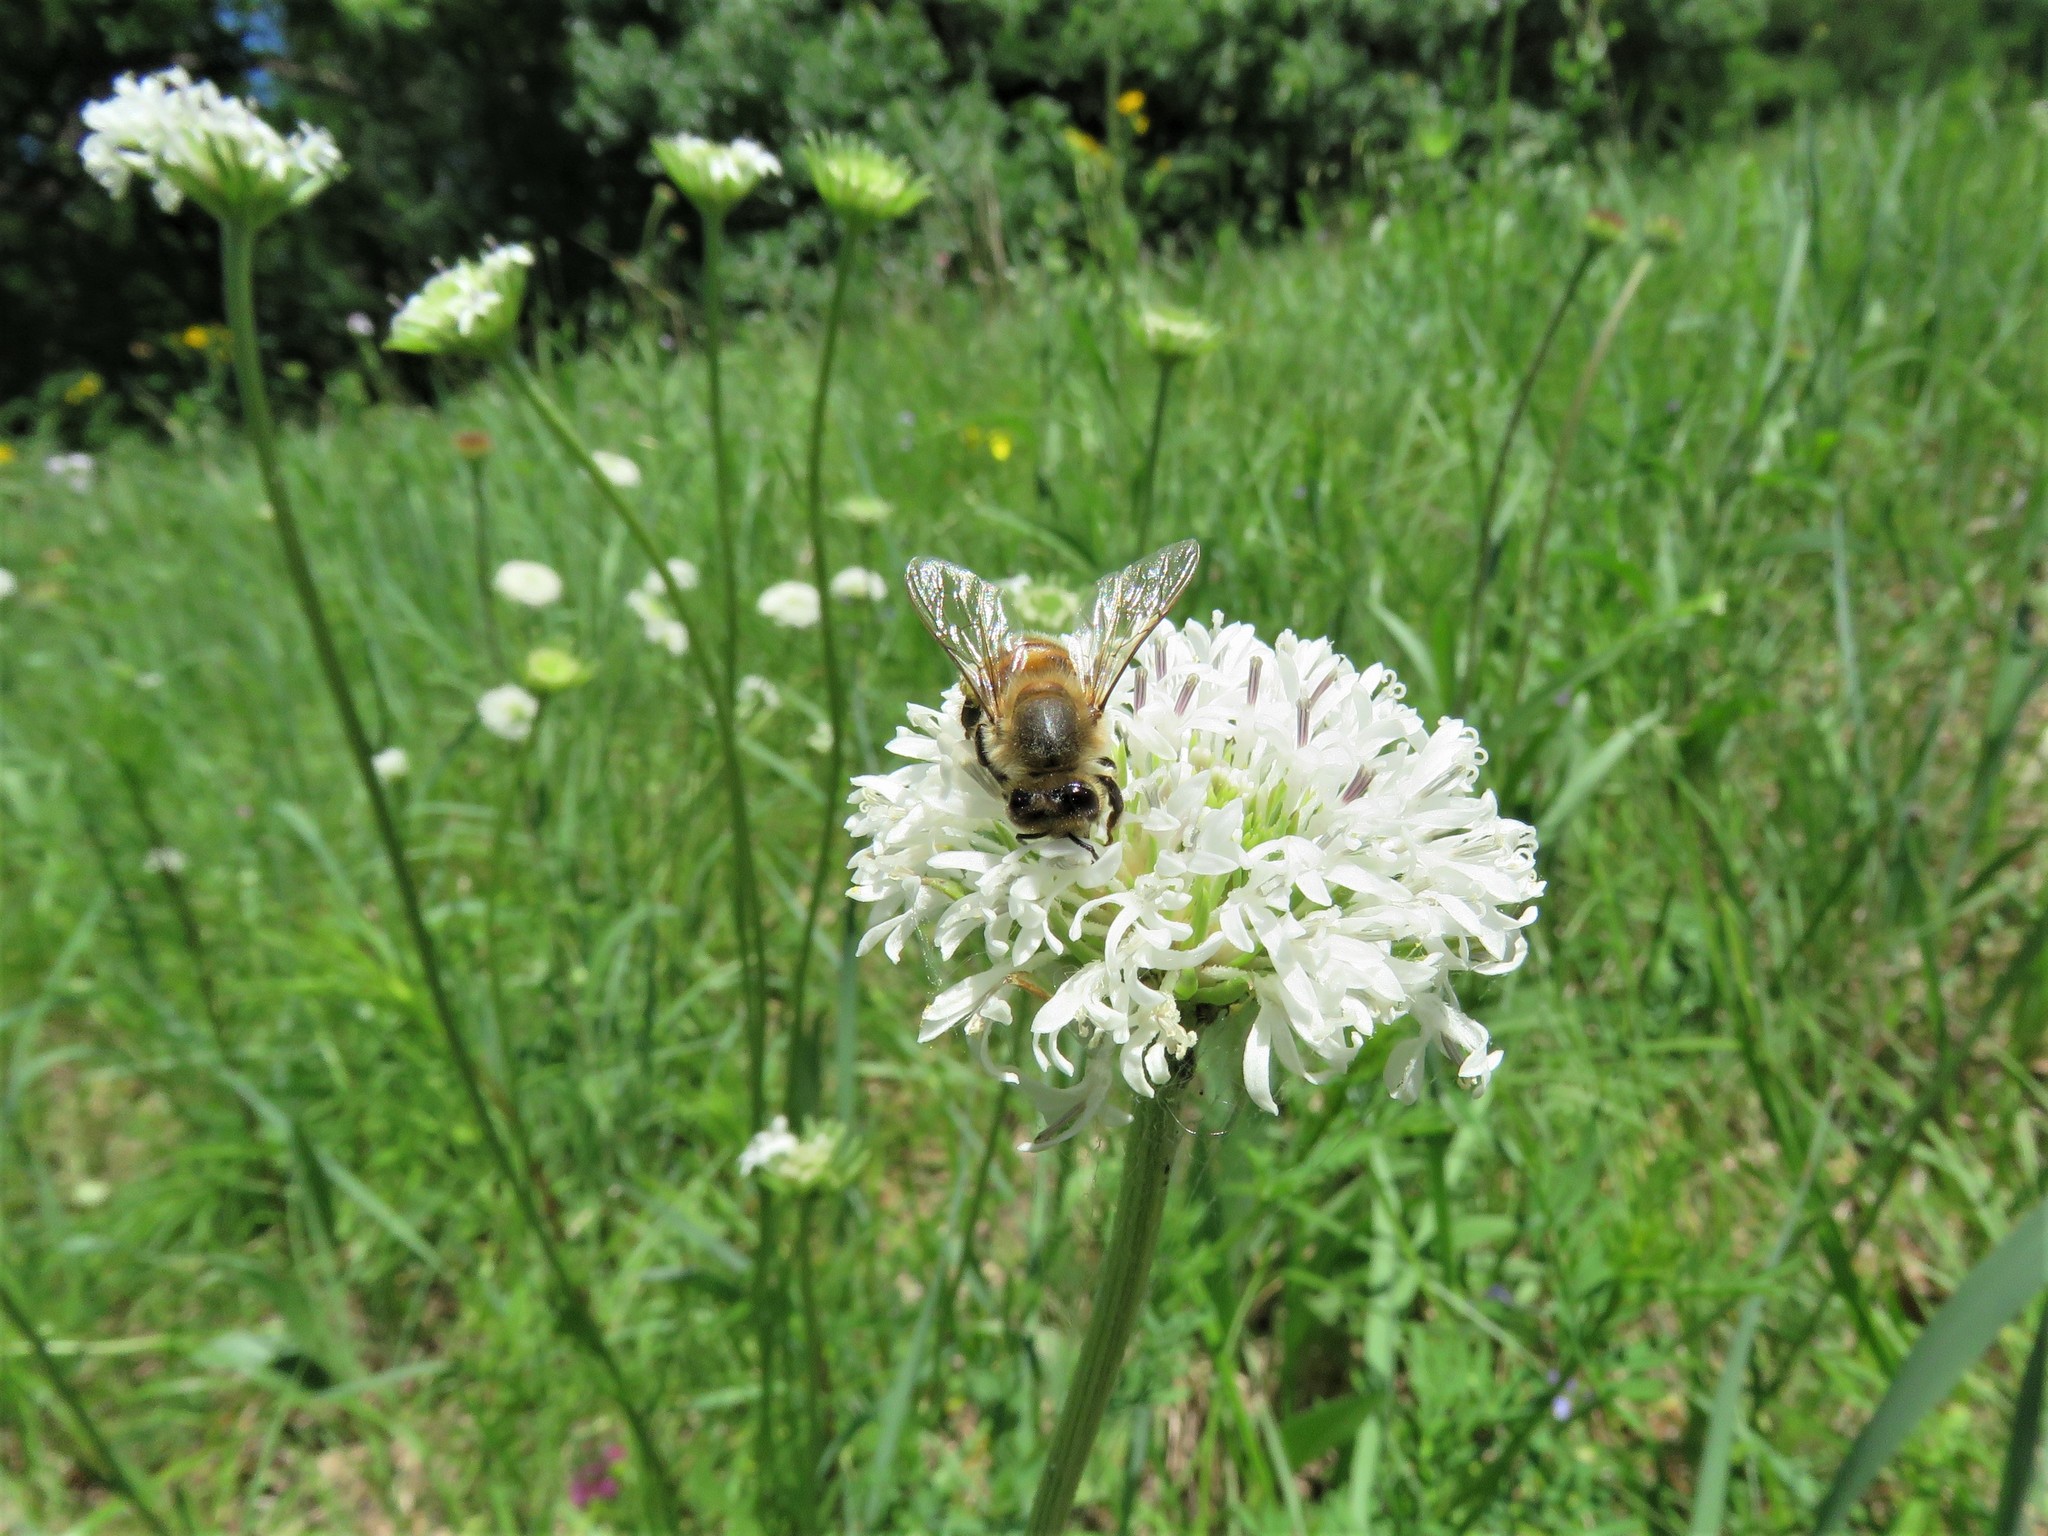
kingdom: Animalia
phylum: Arthropoda
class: Insecta
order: Hymenoptera
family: Apidae
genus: Apis
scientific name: Apis mellifera
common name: Honey bee
